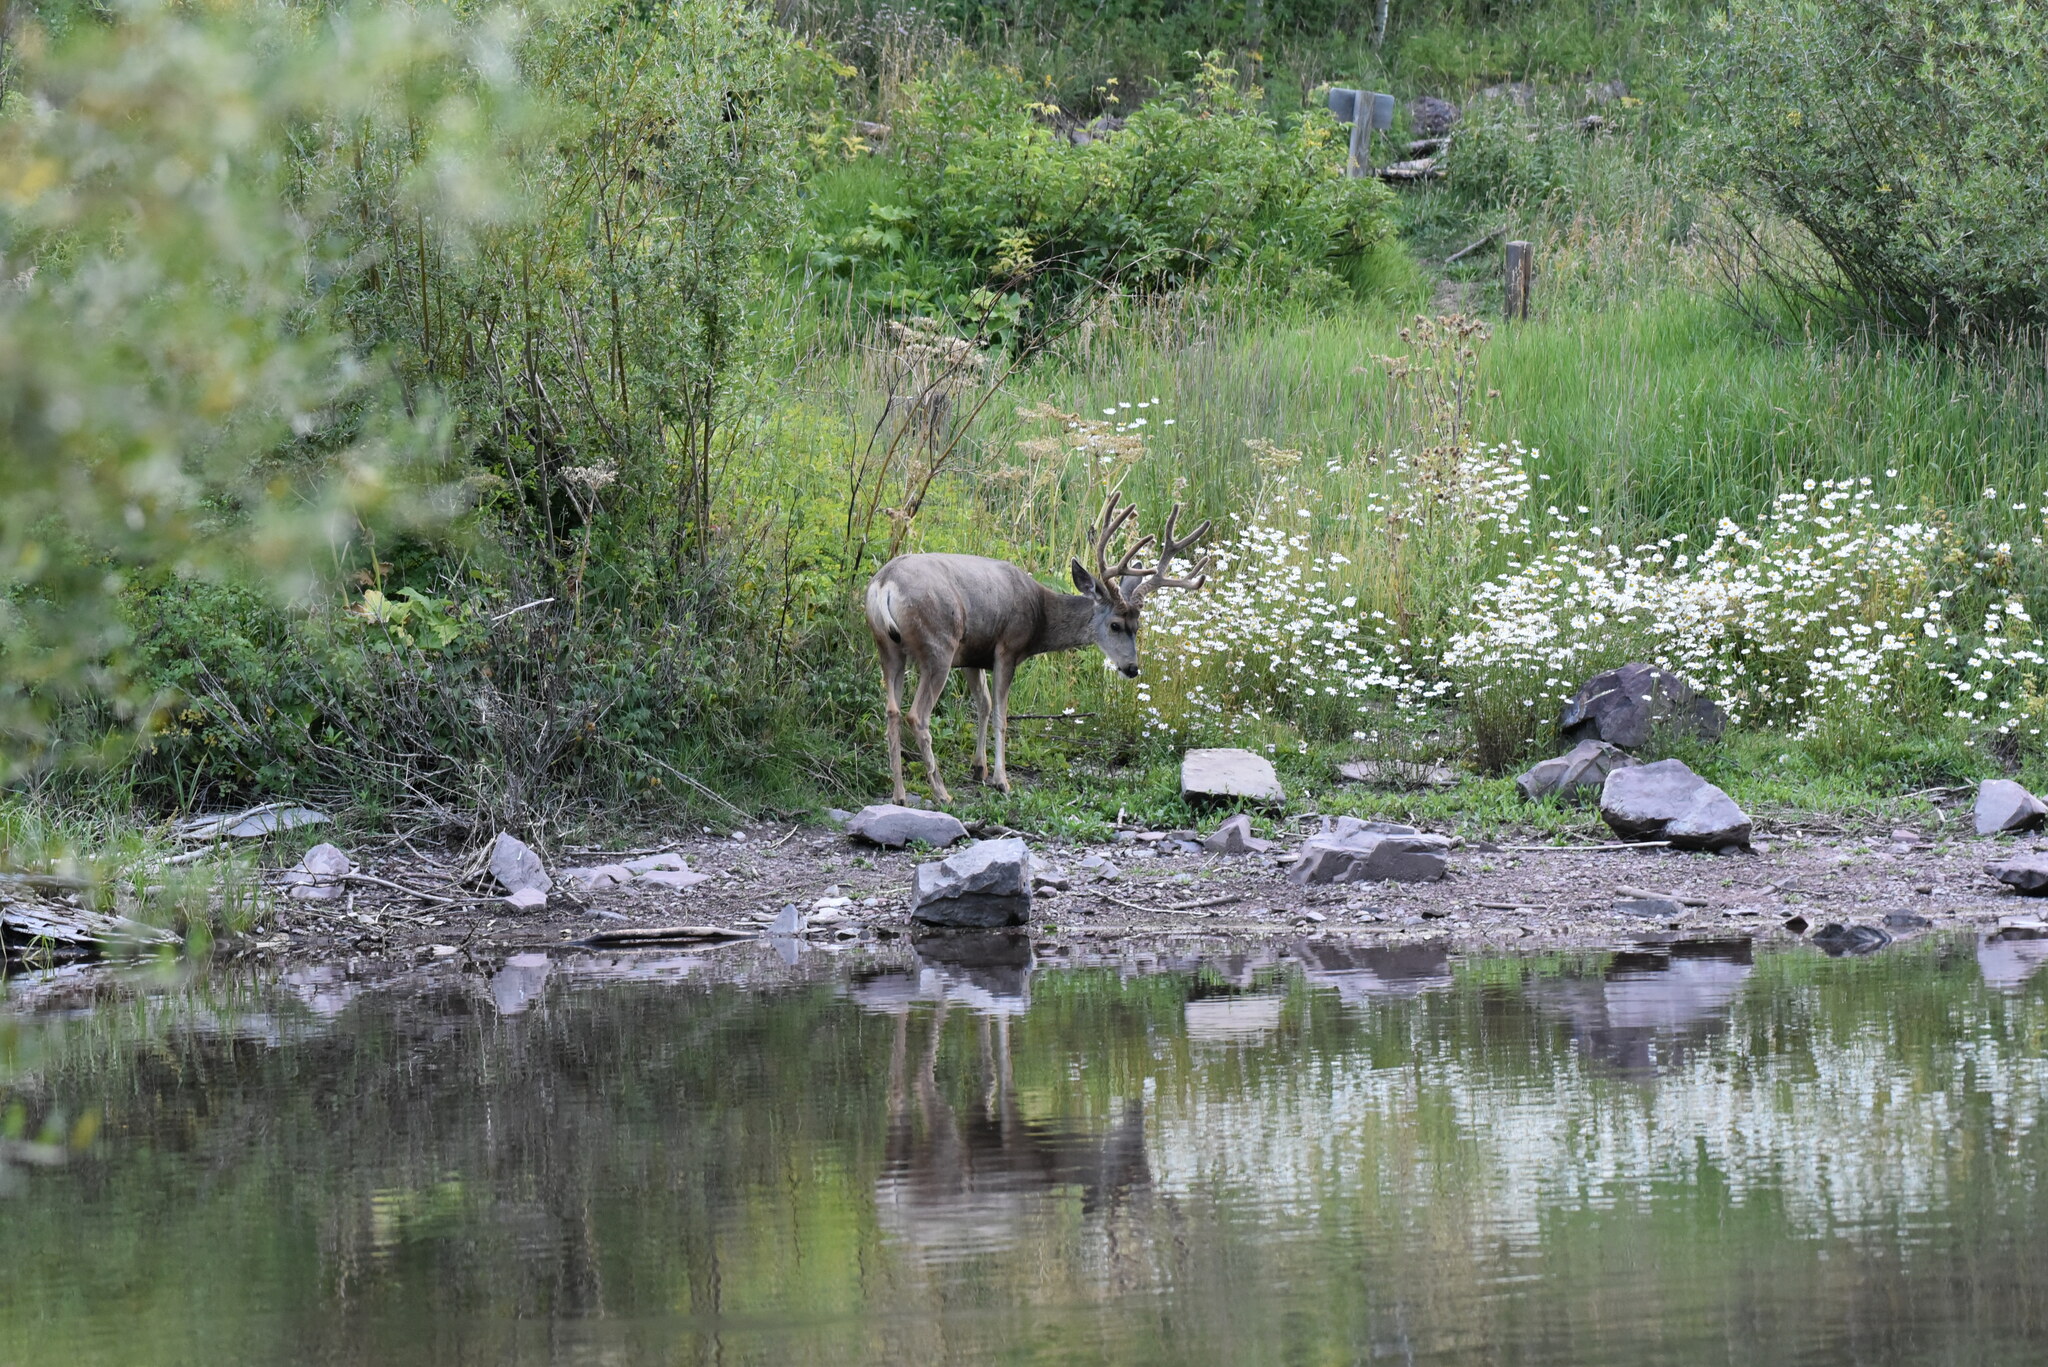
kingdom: Animalia
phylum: Chordata
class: Mammalia
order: Artiodactyla
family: Cervidae
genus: Odocoileus
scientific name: Odocoileus hemionus
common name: Mule deer
